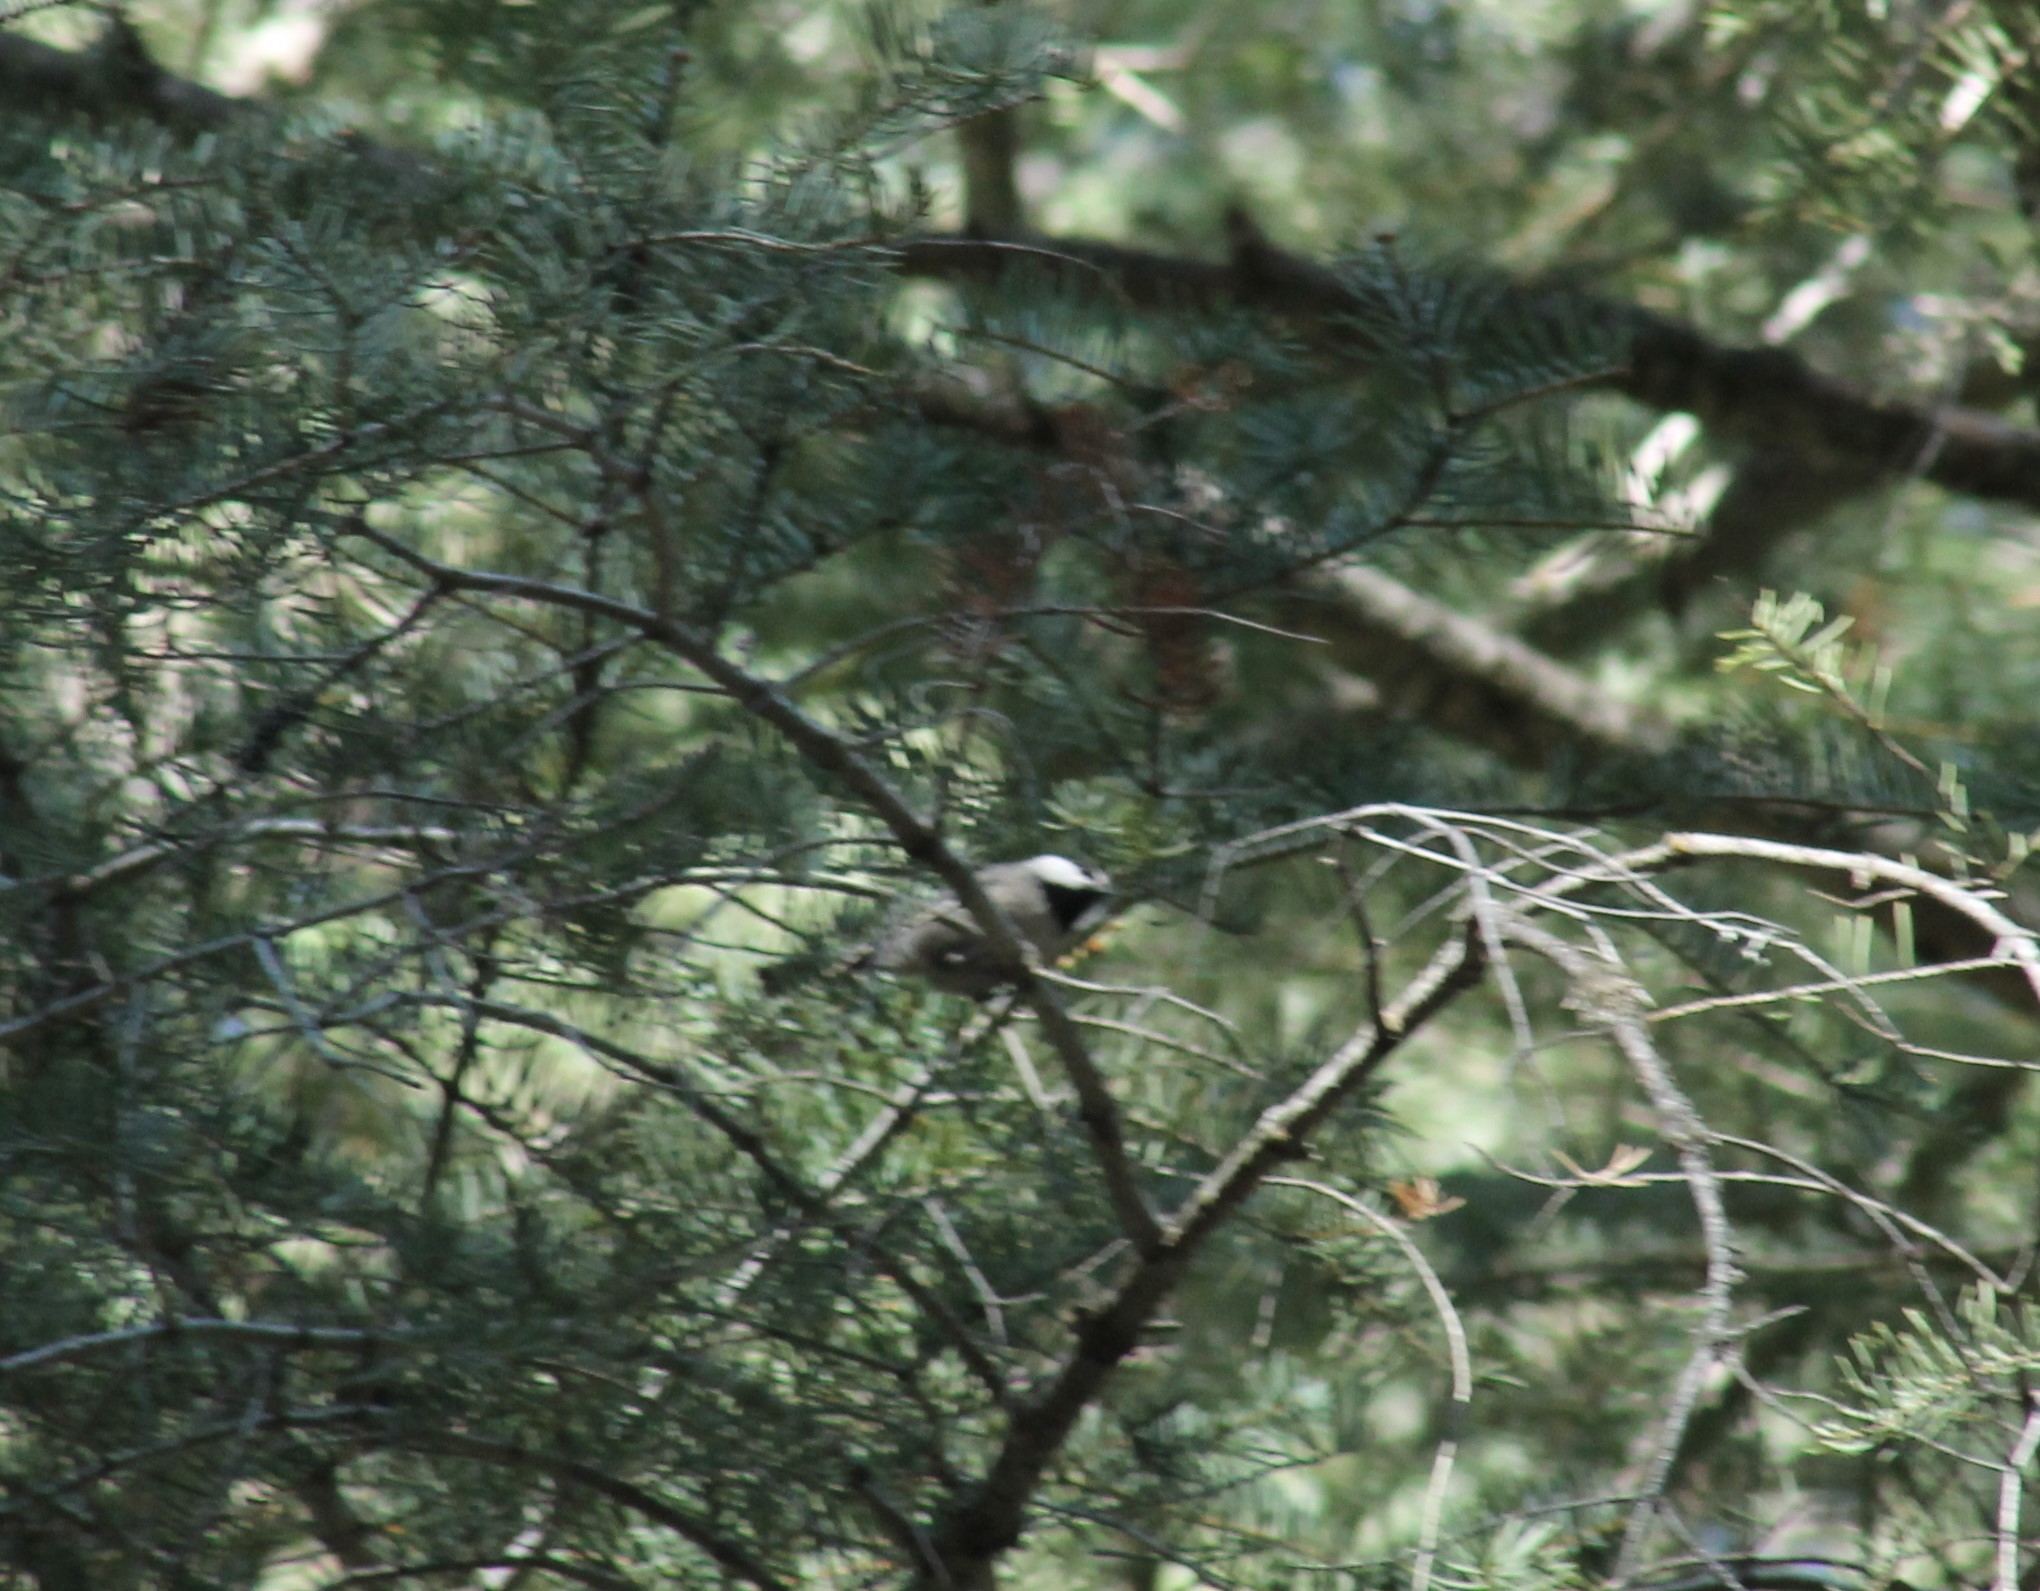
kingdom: Animalia
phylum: Chordata
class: Aves
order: Passeriformes
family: Paridae
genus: Poecile
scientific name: Poecile gambeli
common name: Mountain chickadee
